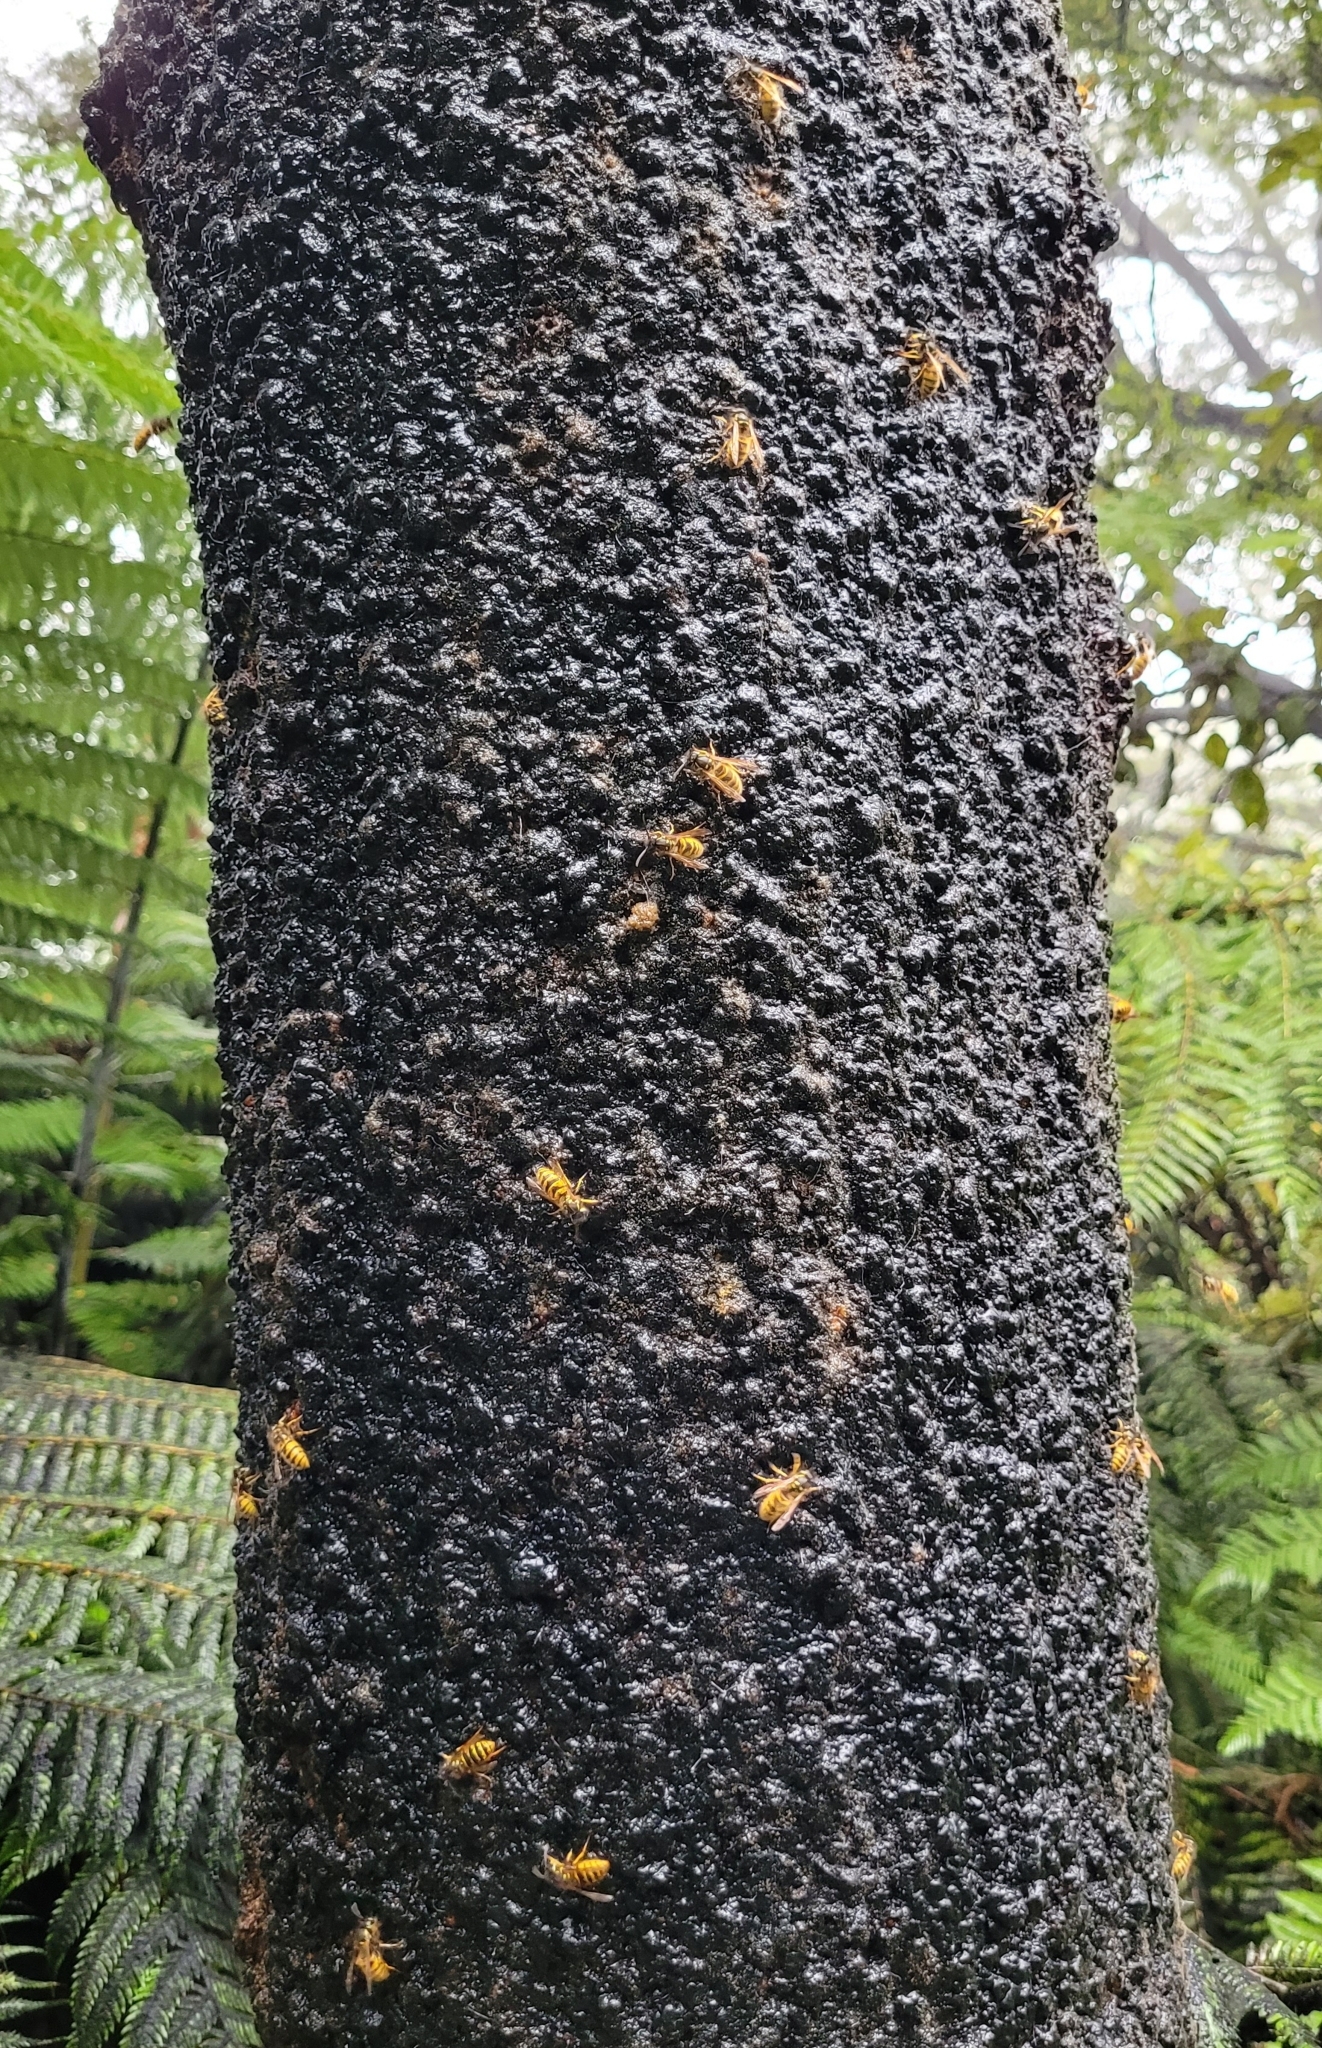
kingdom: Animalia
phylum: Arthropoda
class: Insecta
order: Hymenoptera
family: Vespidae
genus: Vespula
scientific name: Vespula vulgaris
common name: Common wasp
